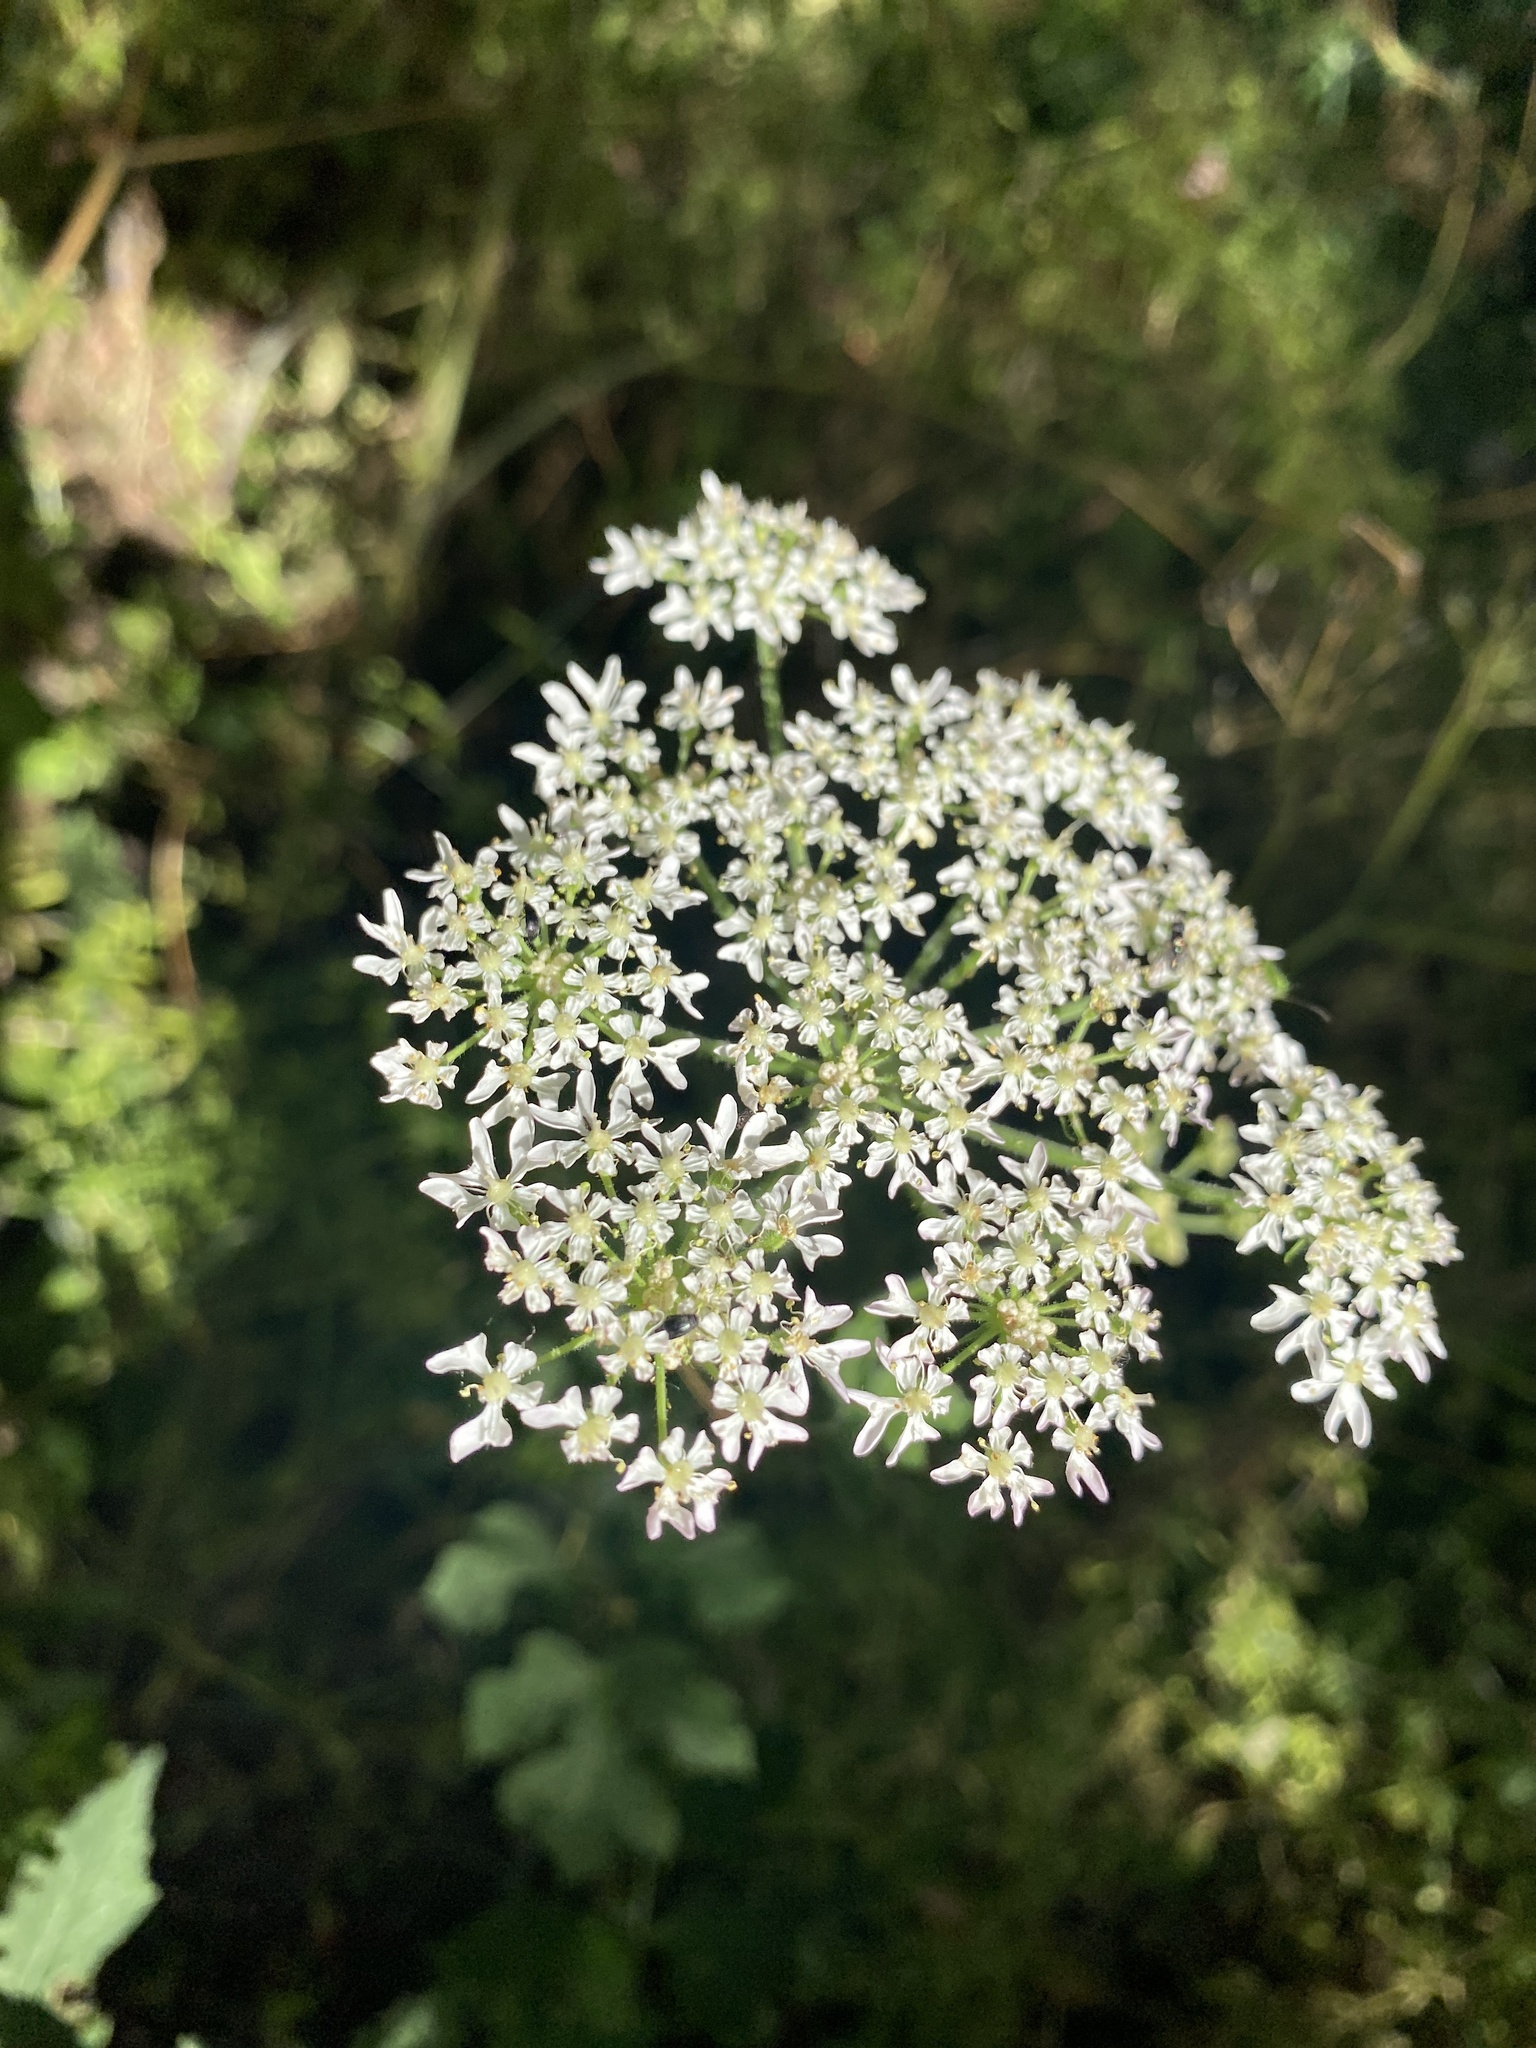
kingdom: Plantae
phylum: Tracheophyta
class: Magnoliopsida
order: Apiales
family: Apiaceae
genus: Heracleum
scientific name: Heracleum sphondylium
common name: Hogweed
